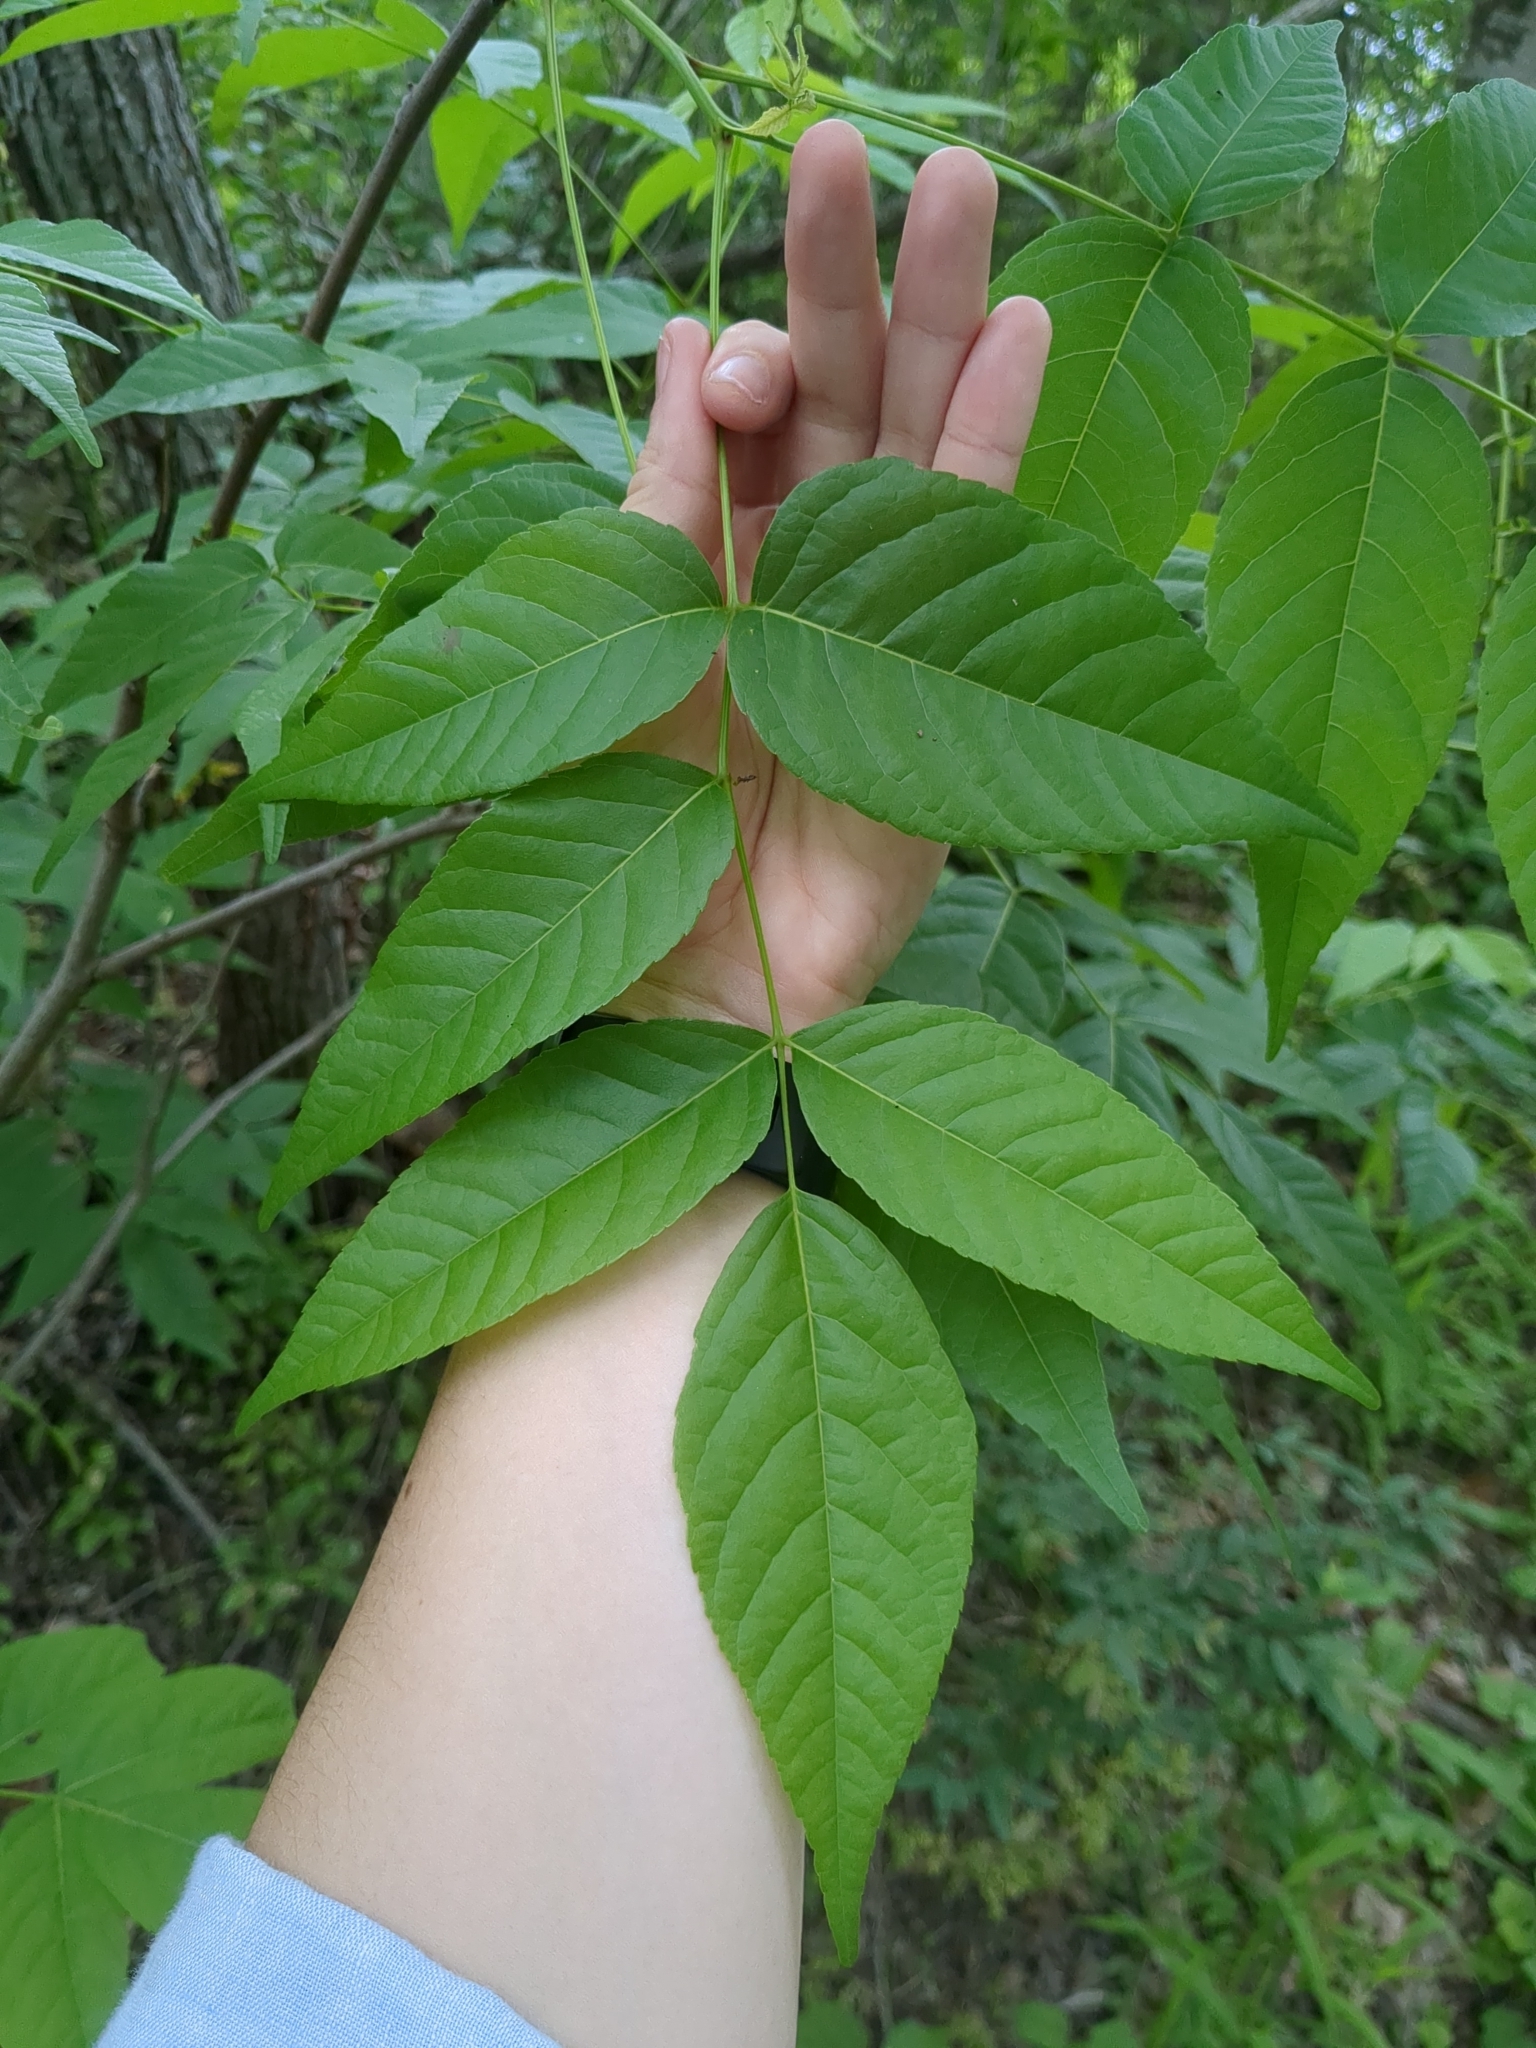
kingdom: Plantae
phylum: Tracheophyta
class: Magnoliopsida
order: Sapindales
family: Sapindaceae
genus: Ungnadia
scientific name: Ungnadia speciosa
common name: Texas-buckeye
